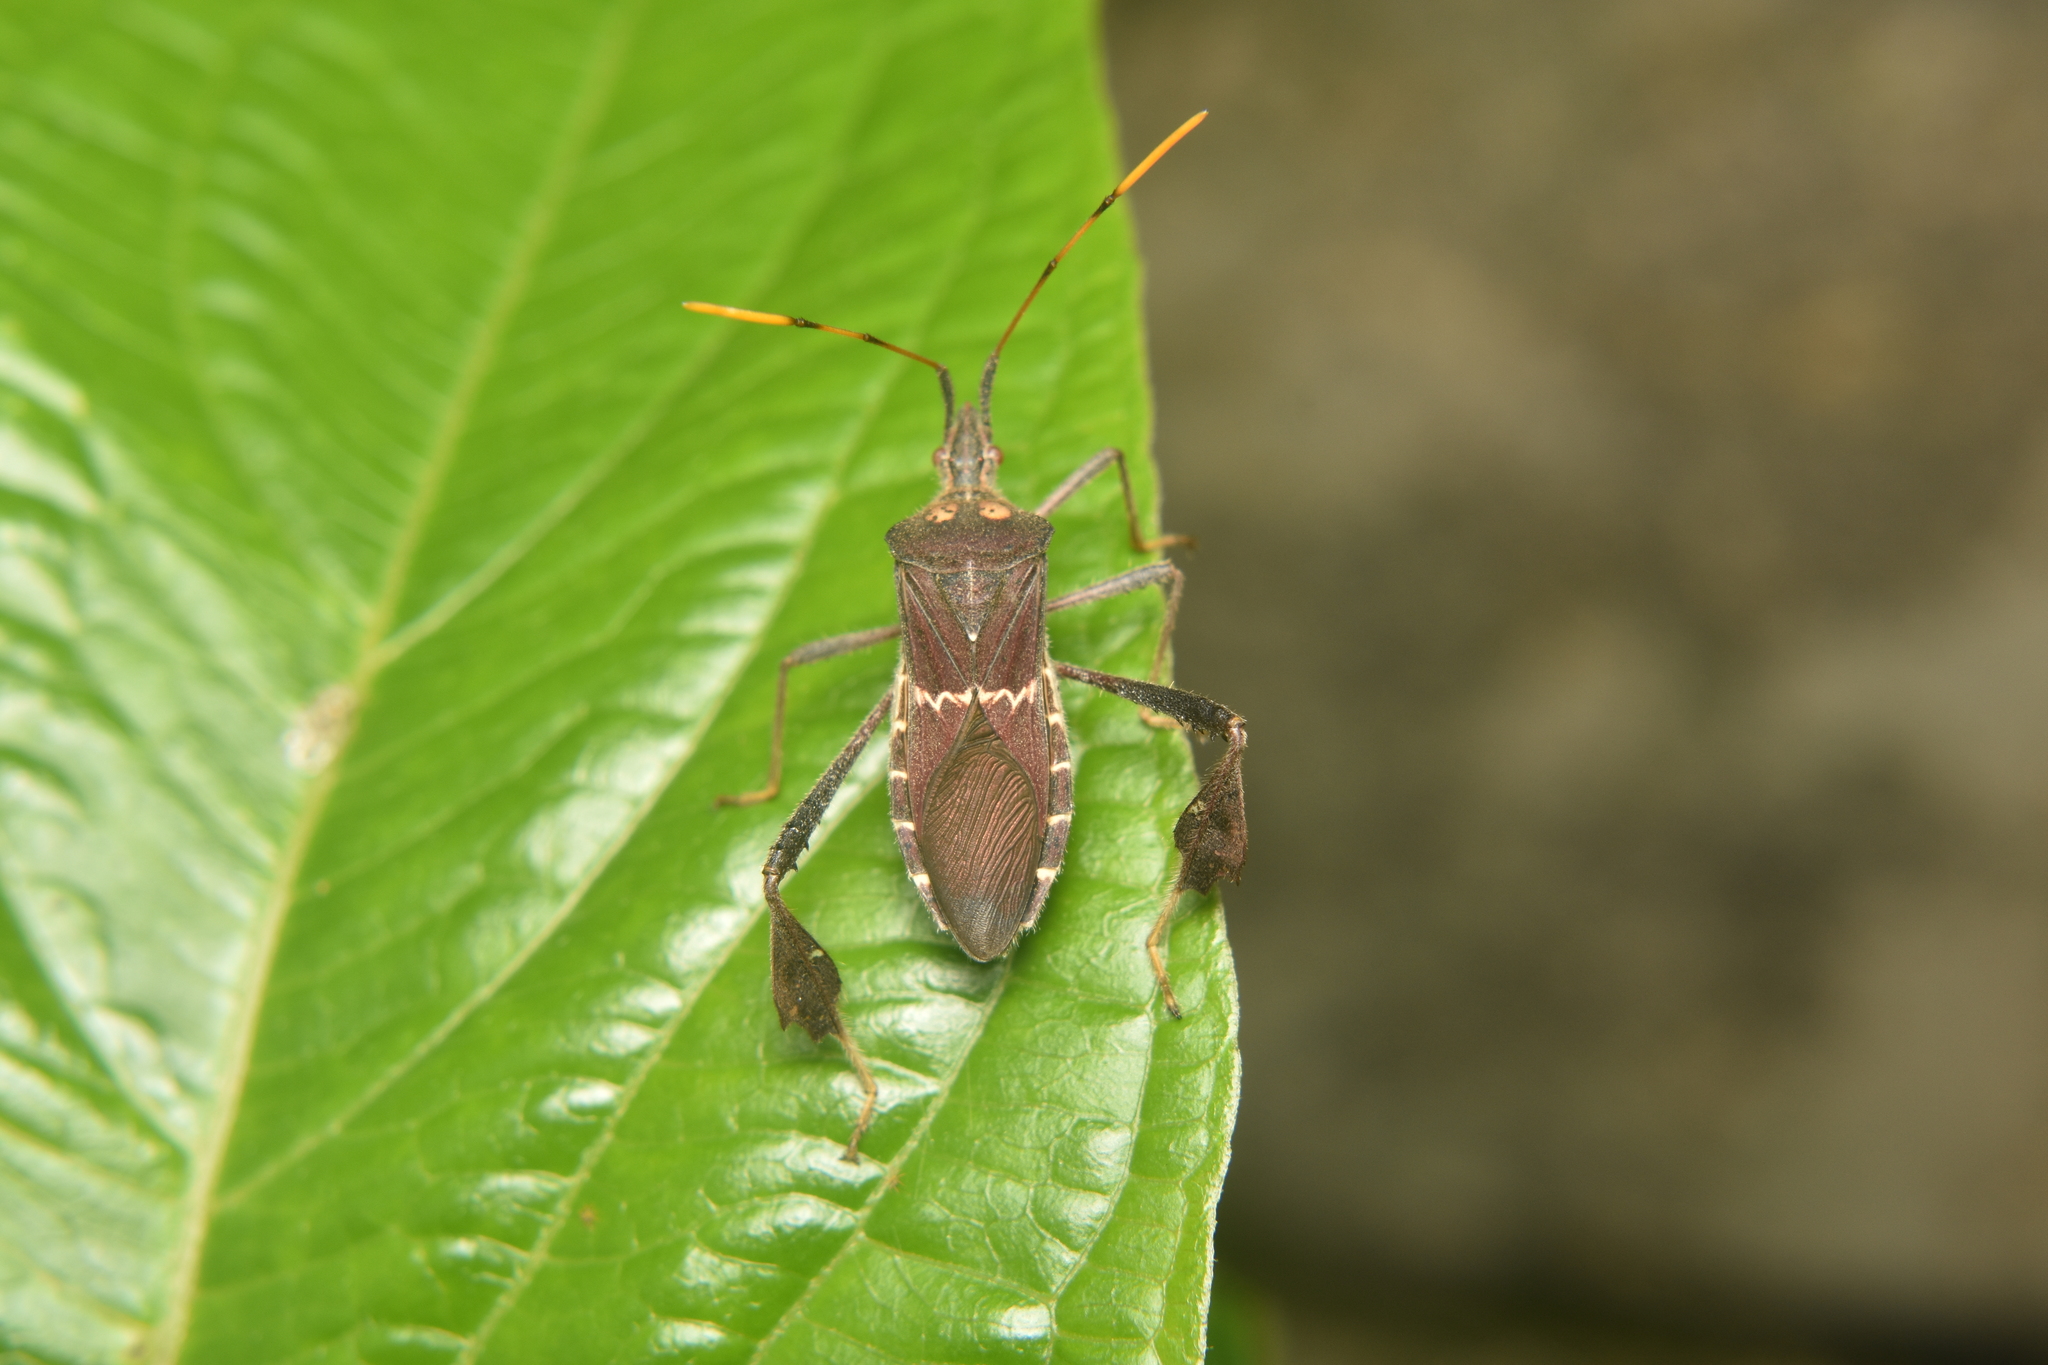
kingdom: Animalia
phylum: Arthropoda
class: Insecta
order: Hemiptera
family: Coreidae
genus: Leptoglossus
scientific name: Leptoglossus zonatus
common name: Large-legged bug
